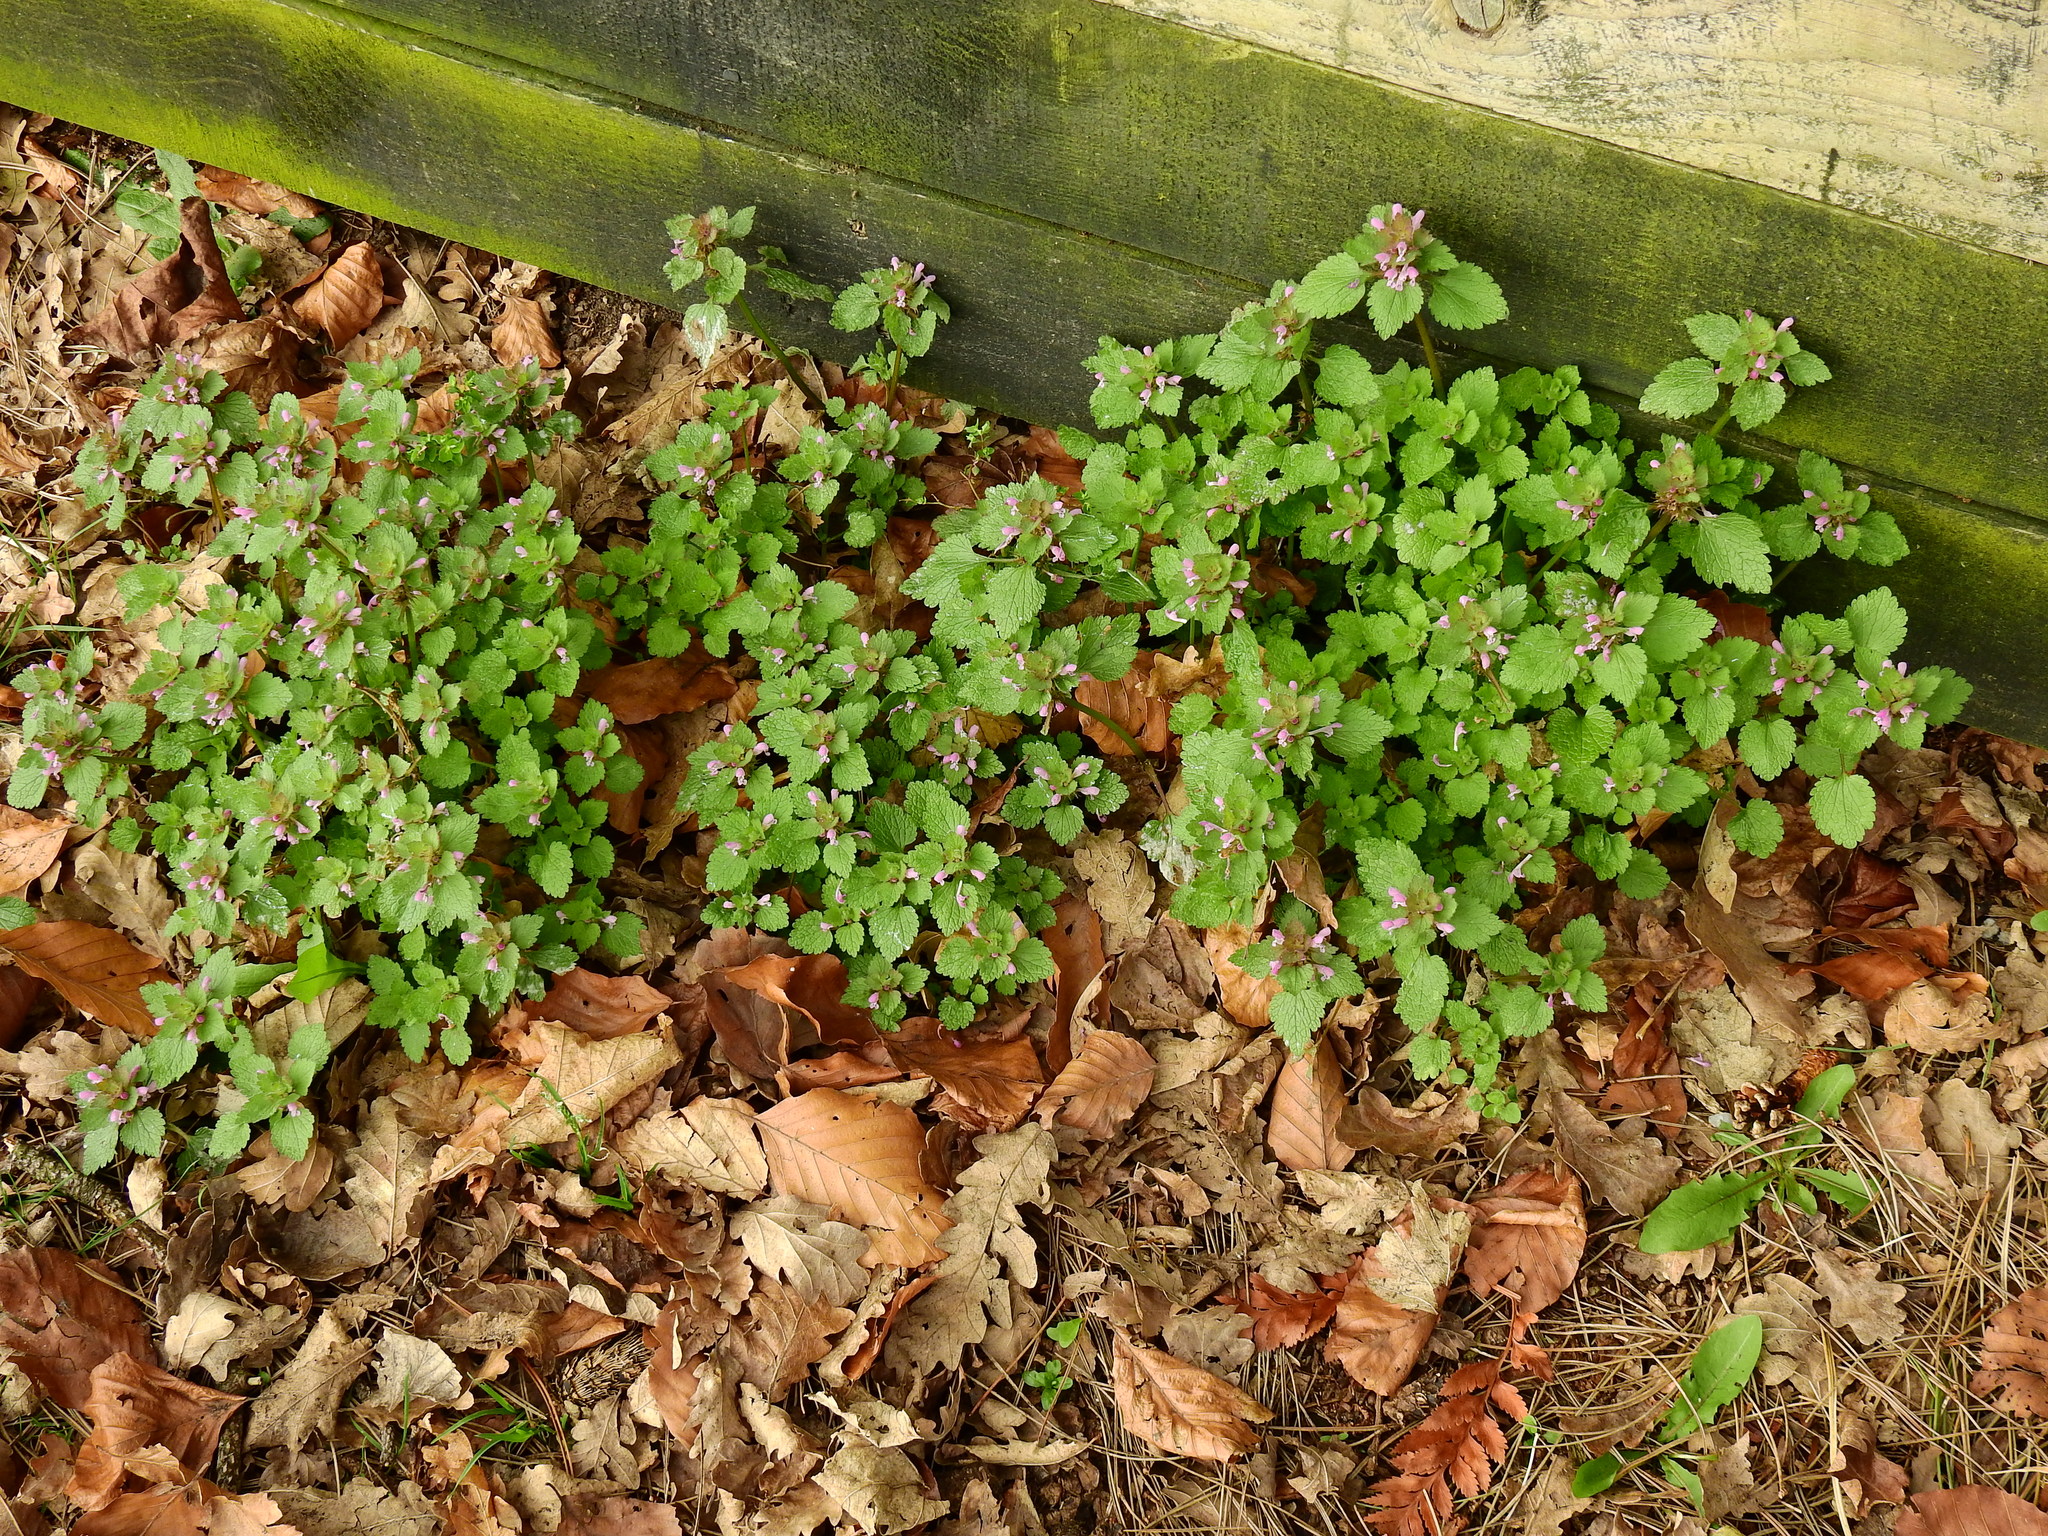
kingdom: Plantae
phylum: Tracheophyta
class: Magnoliopsida
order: Lamiales
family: Lamiaceae
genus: Lamium
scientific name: Lamium purpureum
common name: Red dead-nettle
